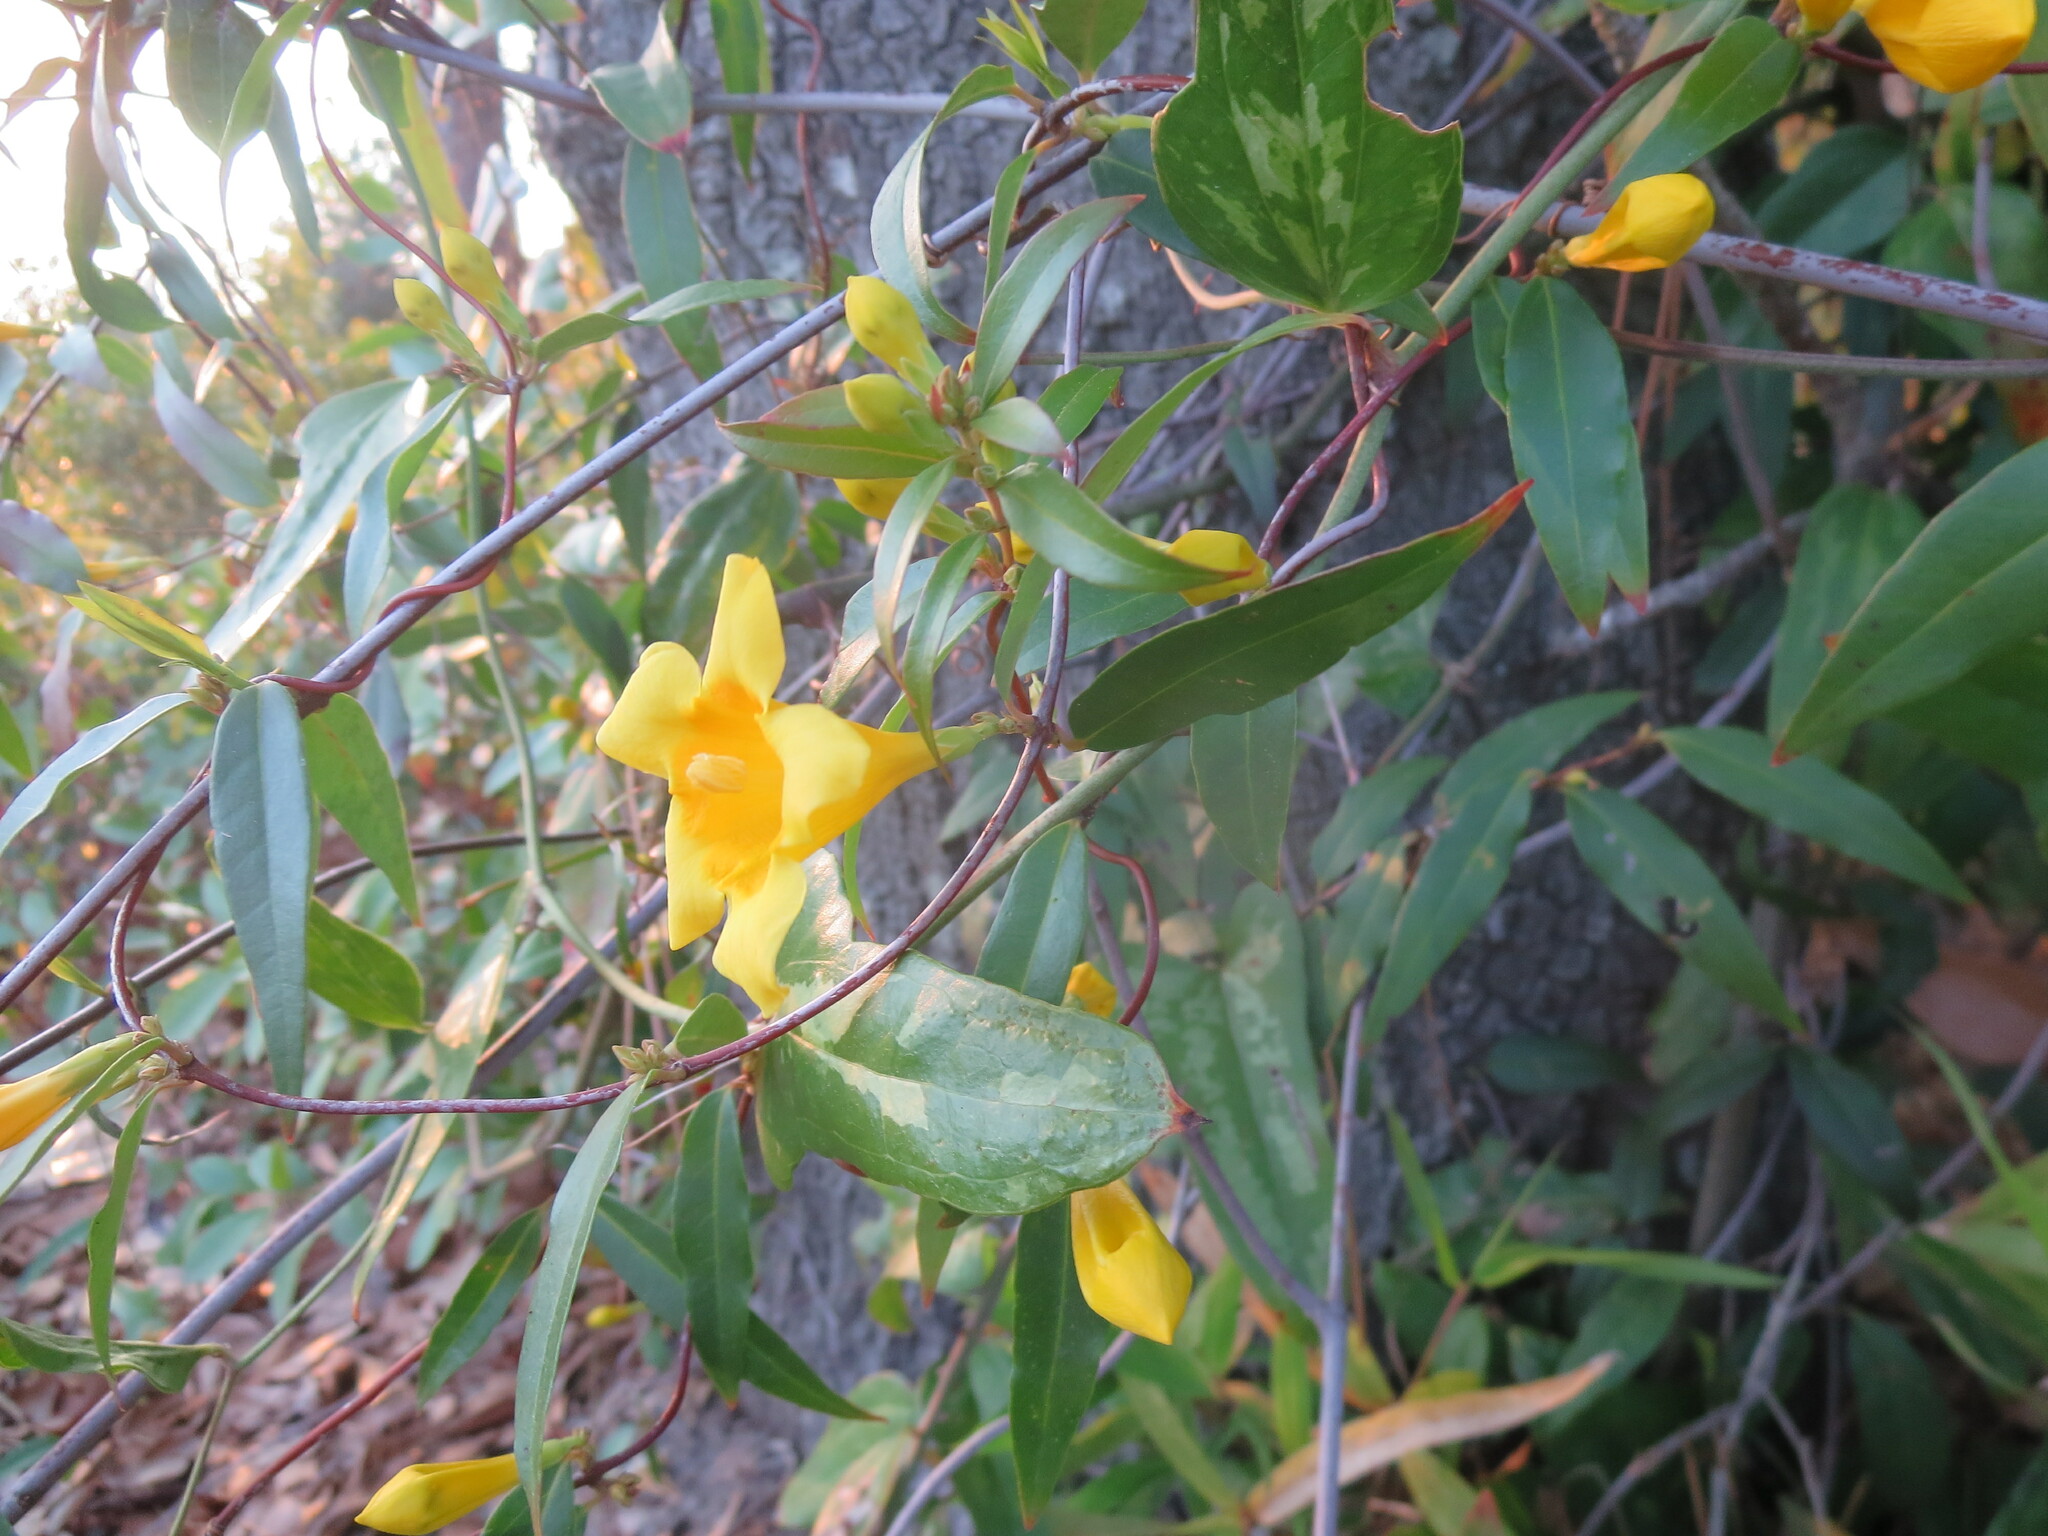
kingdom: Plantae
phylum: Tracheophyta
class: Magnoliopsida
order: Gentianales
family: Gelsemiaceae
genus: Gelsemium
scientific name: Gelsemium sempervirens
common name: Carolina-jasmine
